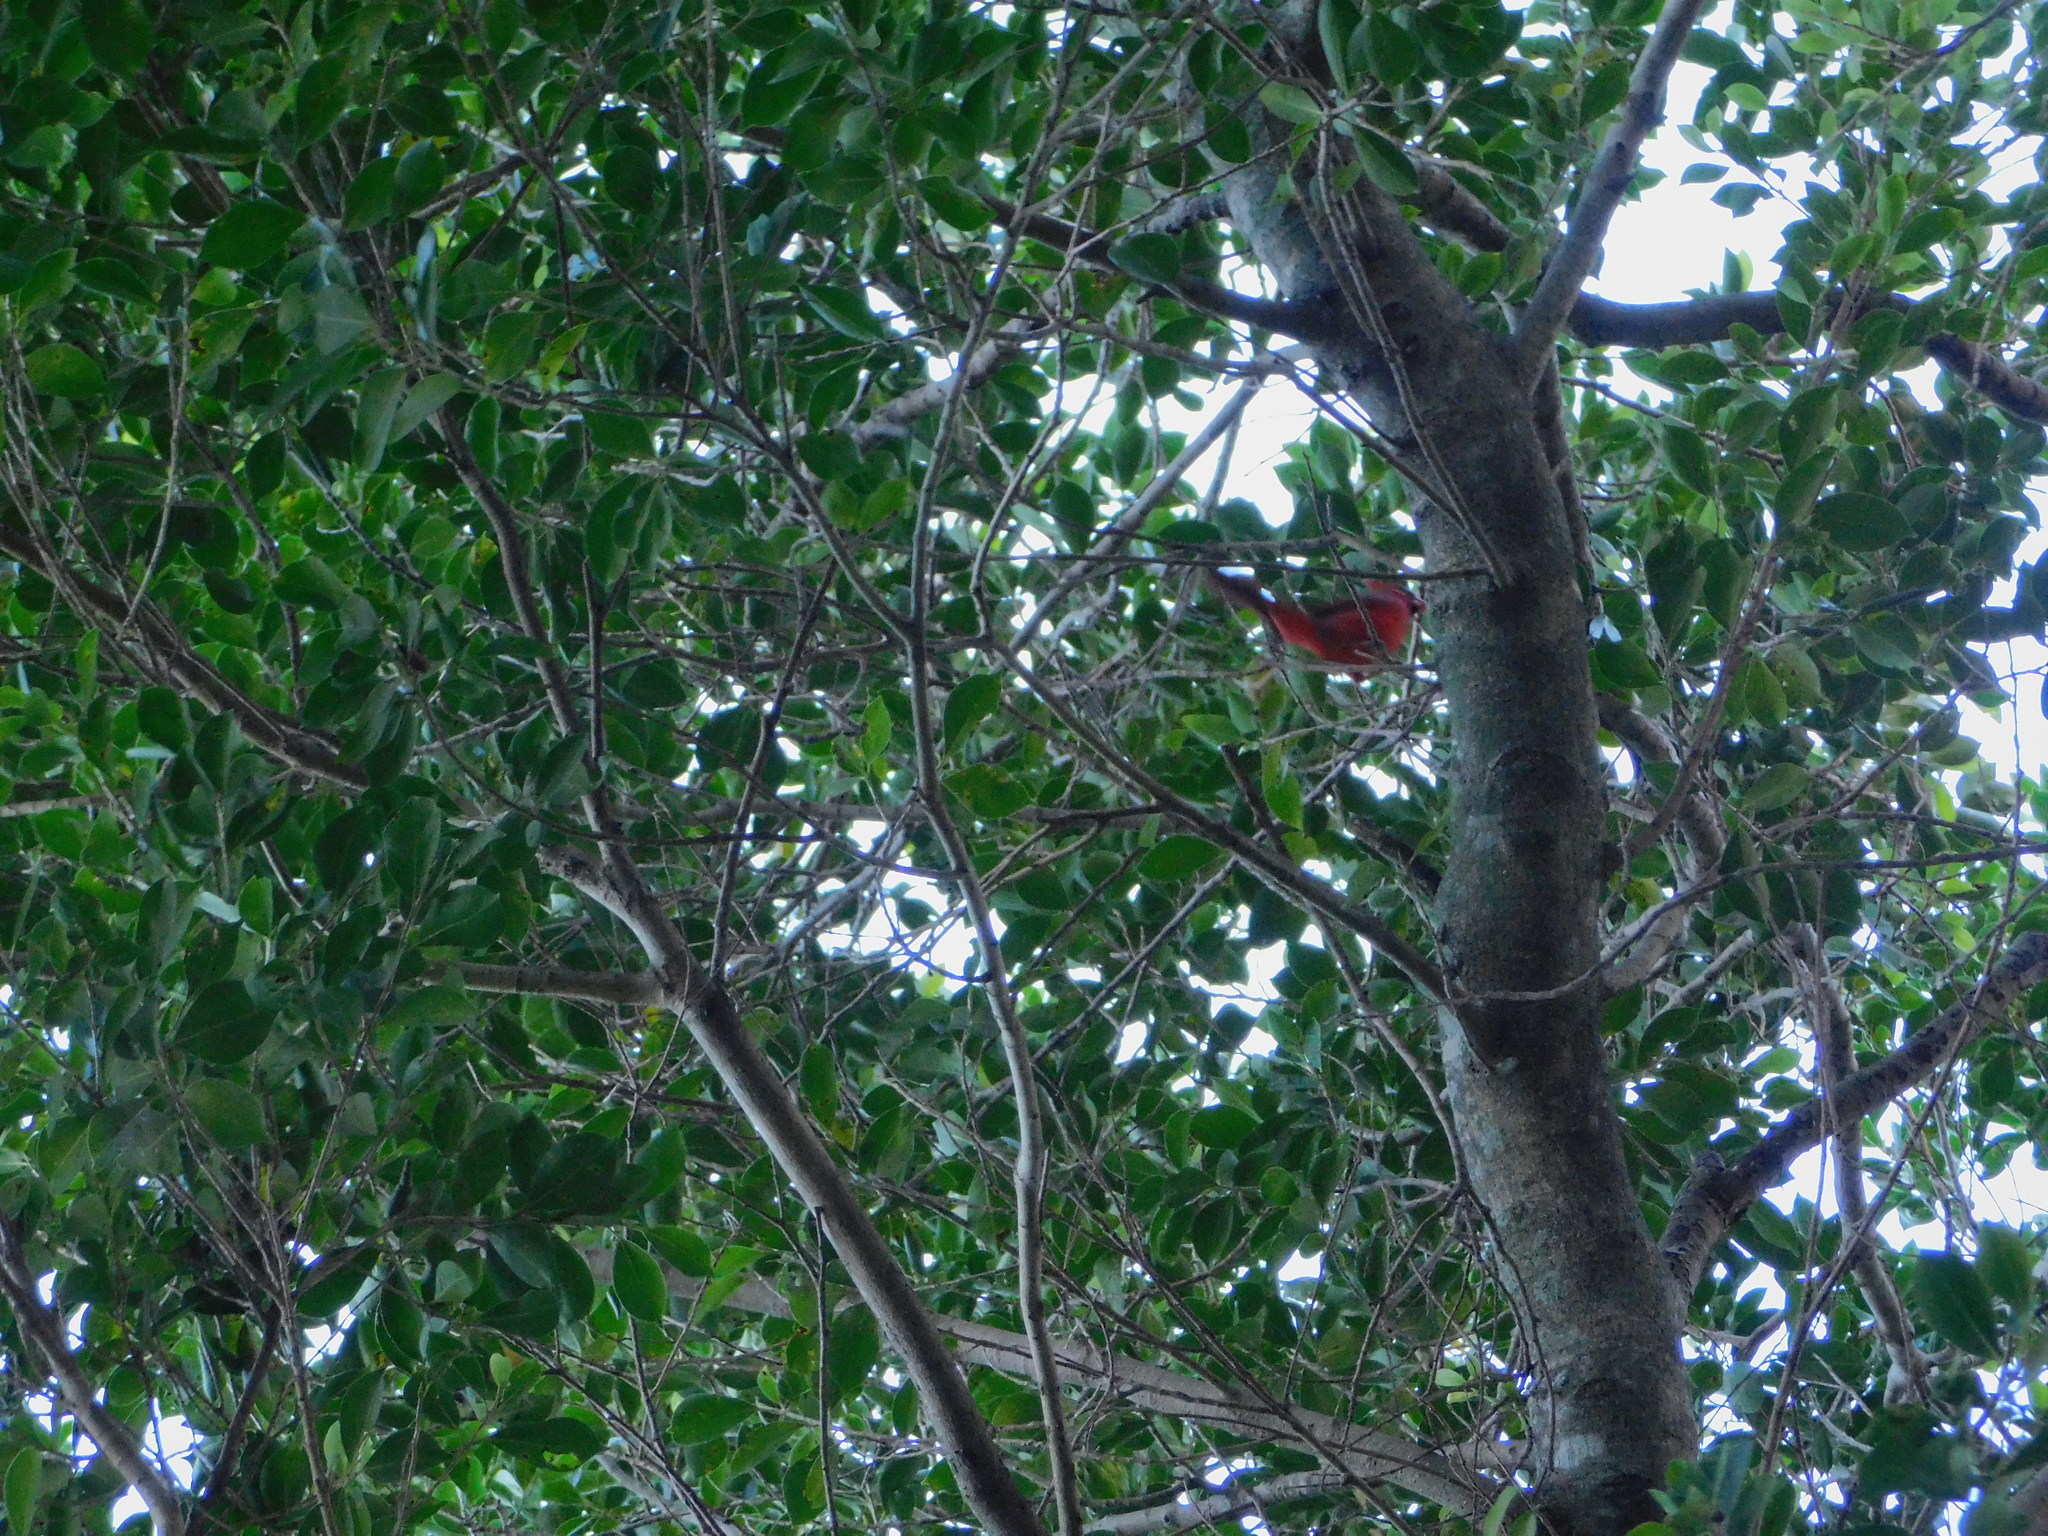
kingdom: Animalia
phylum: Chordata
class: Aves
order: Passeriformes
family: Cardinalidae
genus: Cardinalis
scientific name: Cardinalis cardinalis
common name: Northern cardinal
